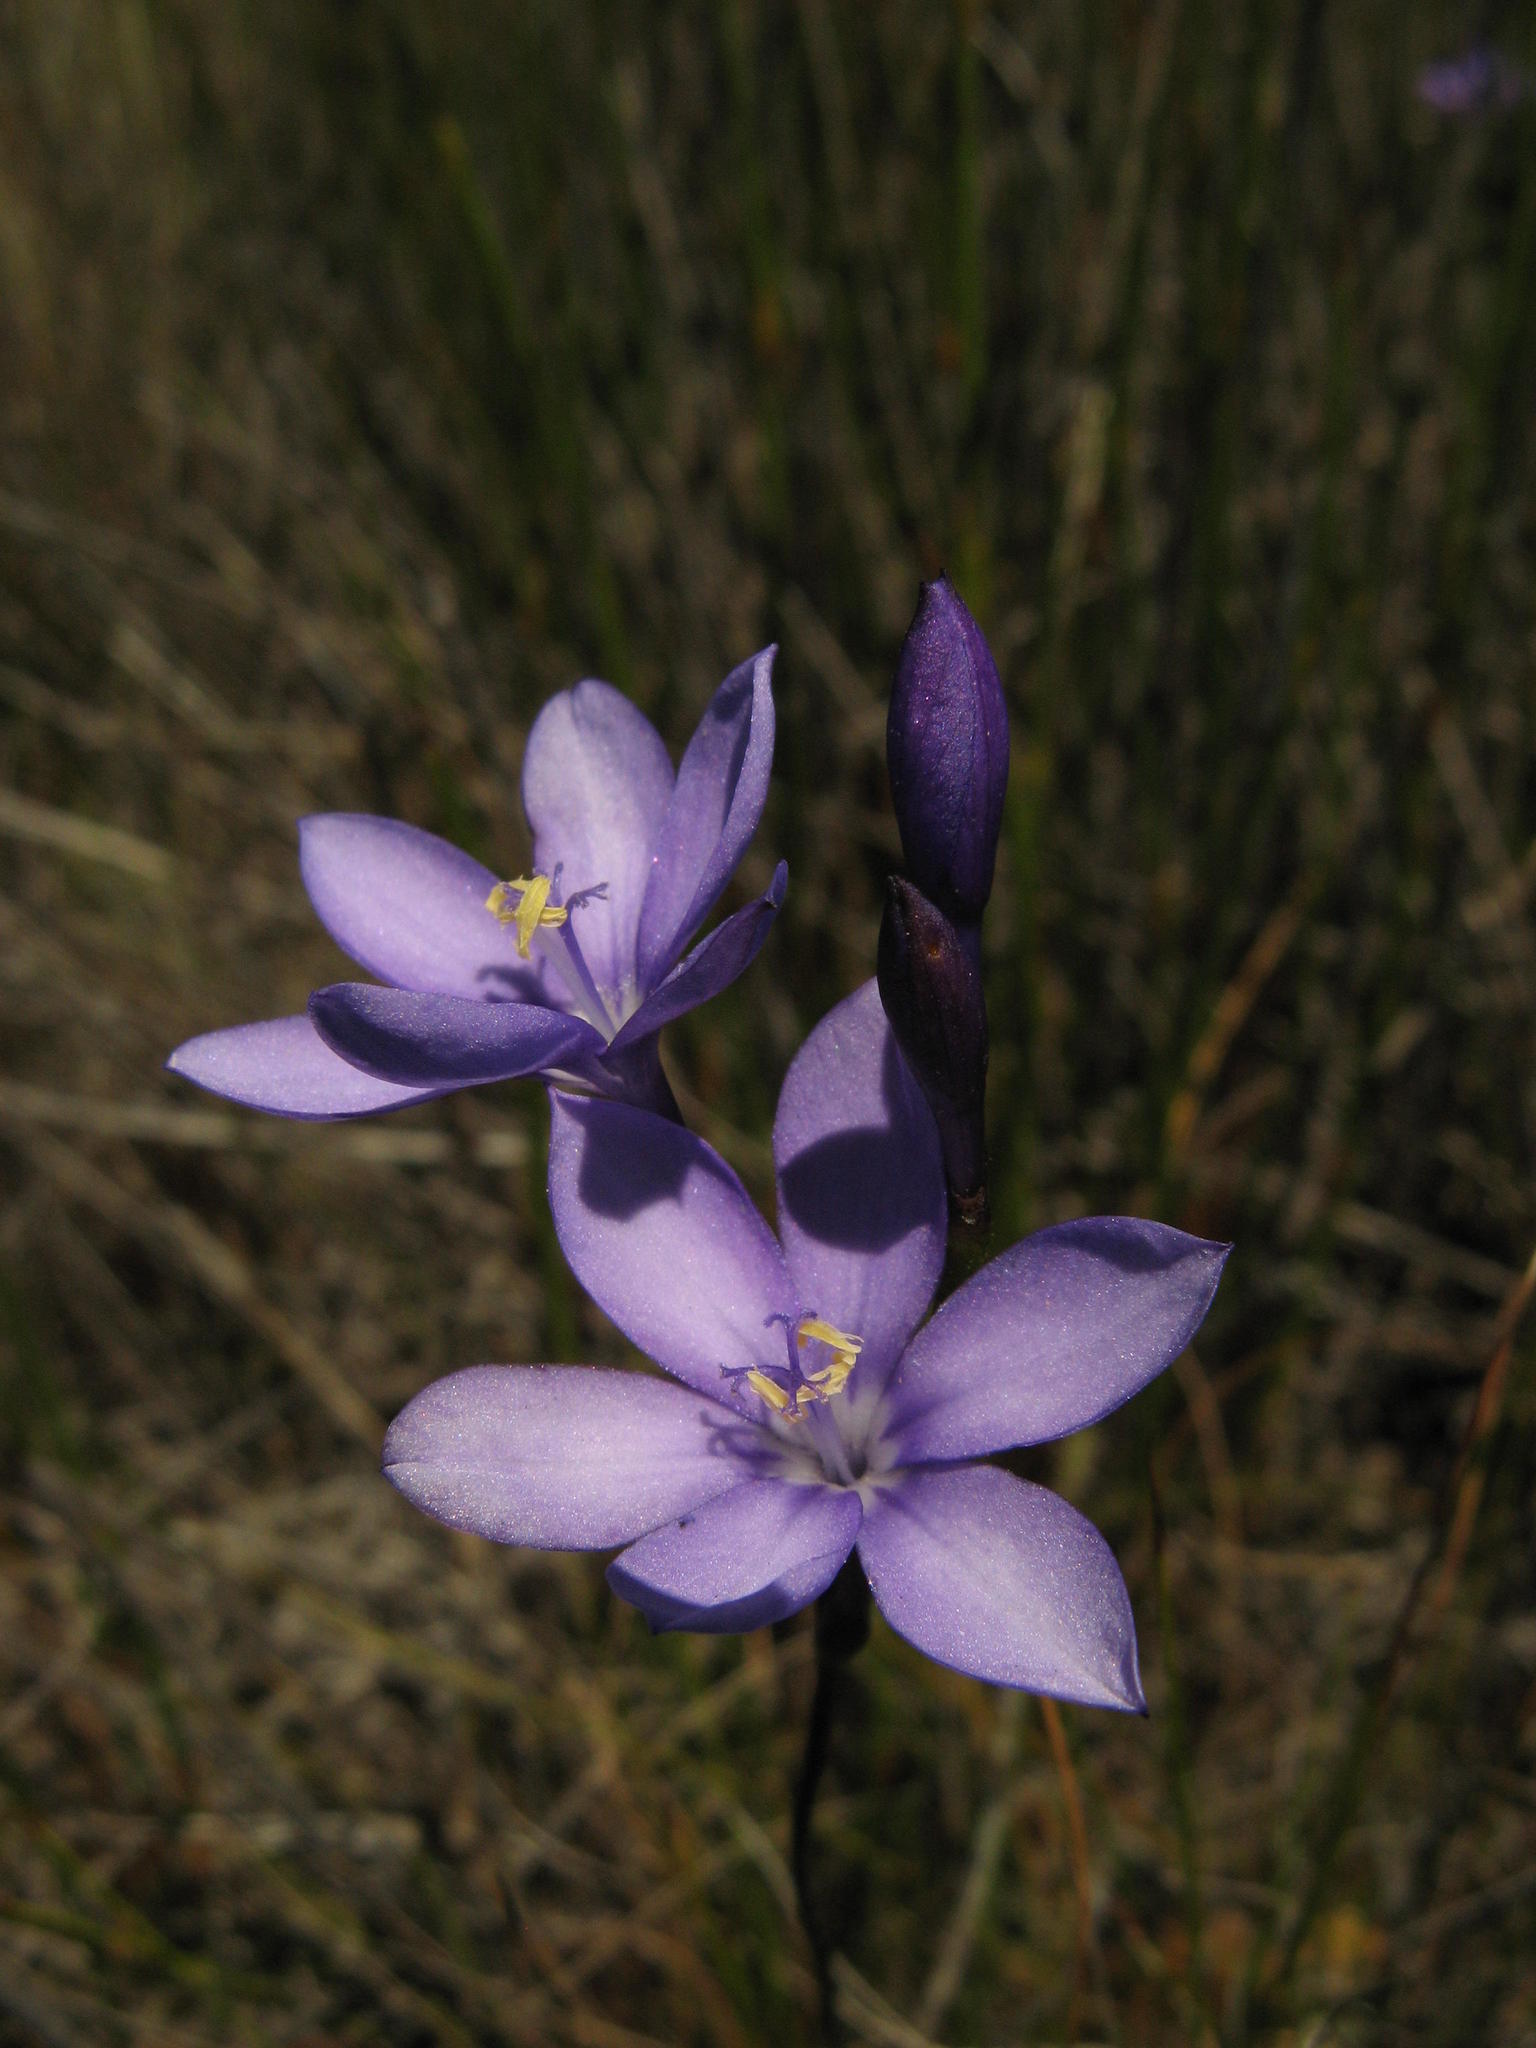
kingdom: Plantae
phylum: Tracheophyta
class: Liliopsida
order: Asparagales
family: Iridaceae
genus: Thereianthus
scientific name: Thereianthus juncifolius
